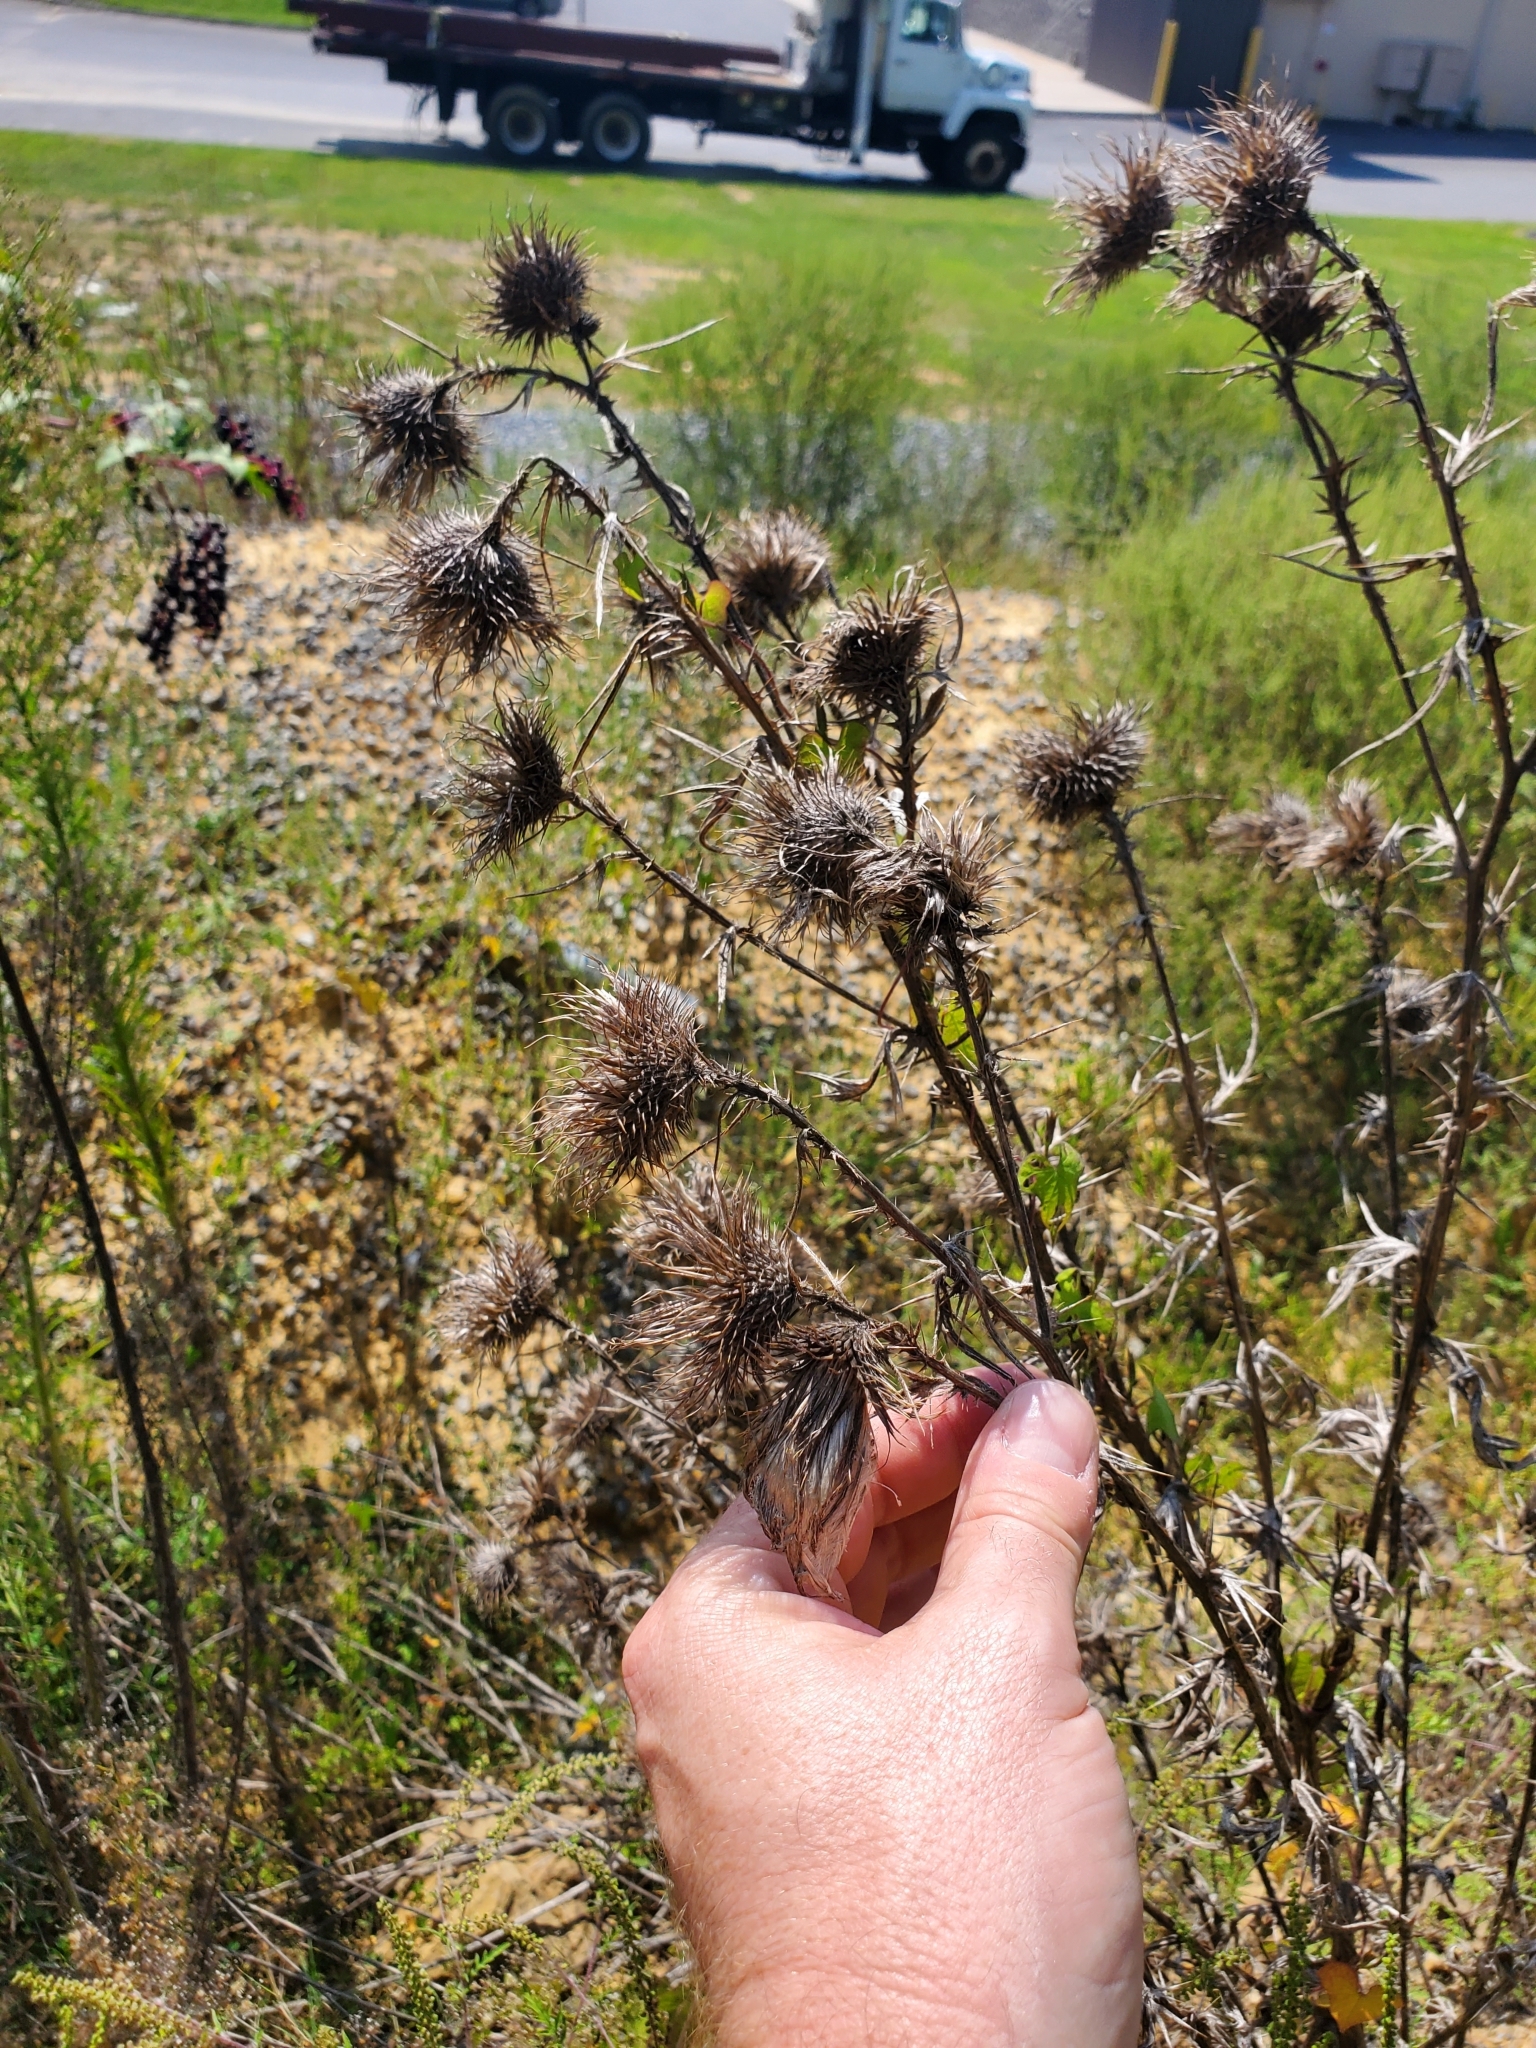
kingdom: Plantae
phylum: Tracheophyta
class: Magnoliopsida
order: Asterales
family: Asteraceae
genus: Cirsium
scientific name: Cirsium vulgare
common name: Bull thistle
